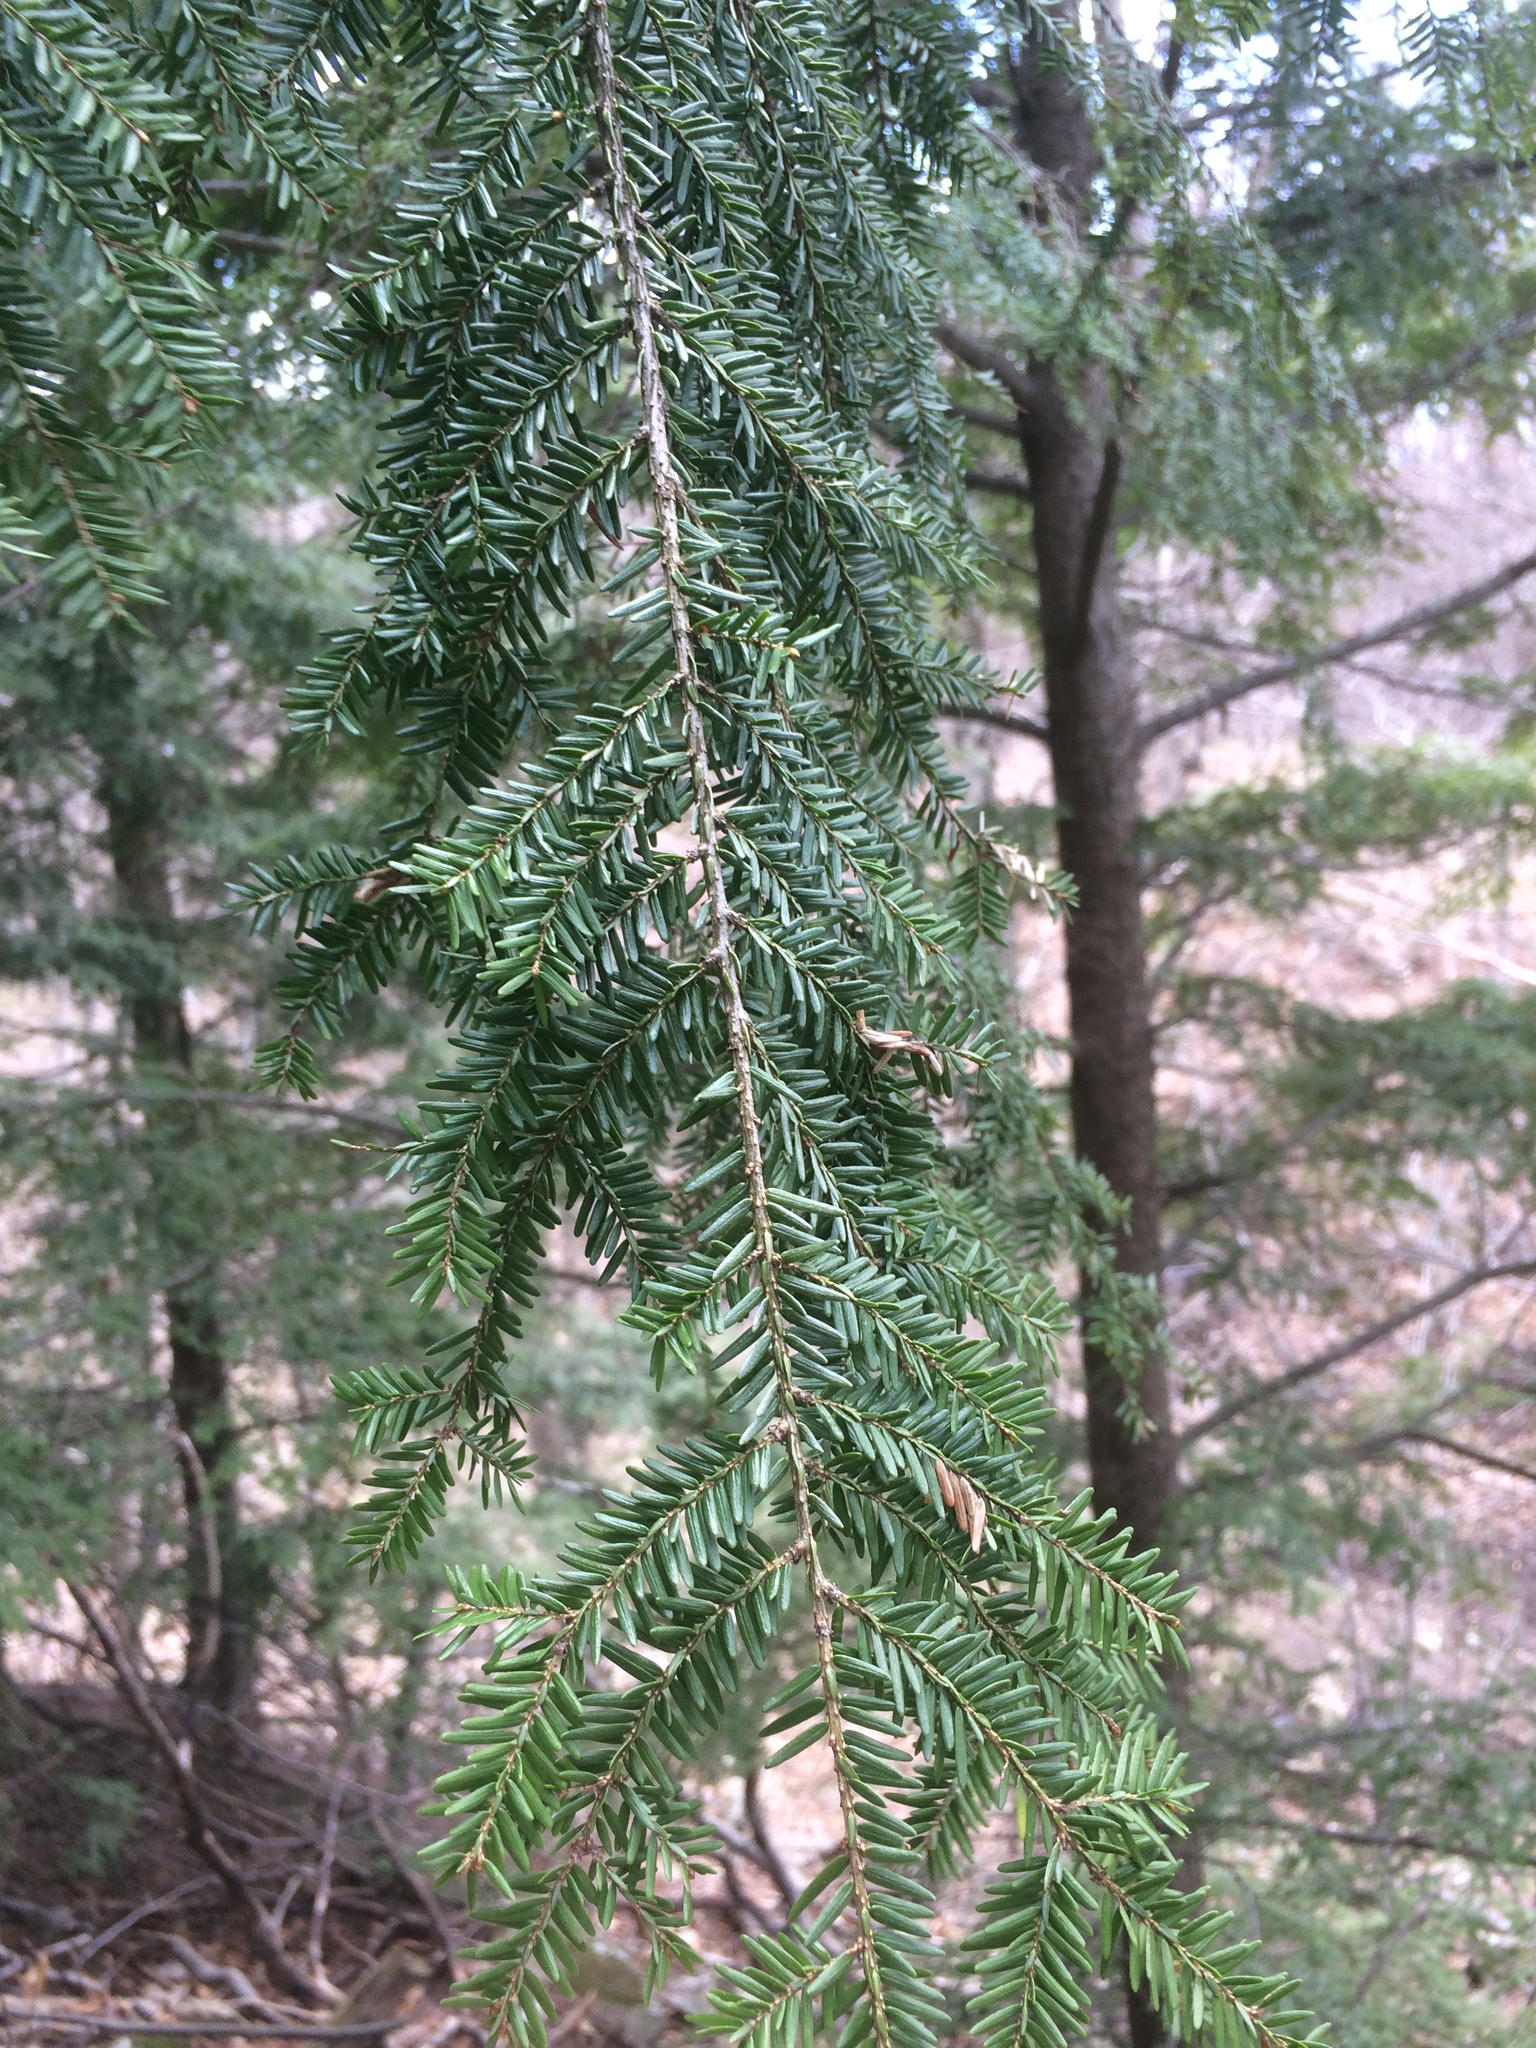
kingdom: Plantae
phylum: Tracheophyta
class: Pinopsida
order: Pinales
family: Pinaceae
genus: Tsuga
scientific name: Tsuga canadensis
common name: Eastern hemlock
